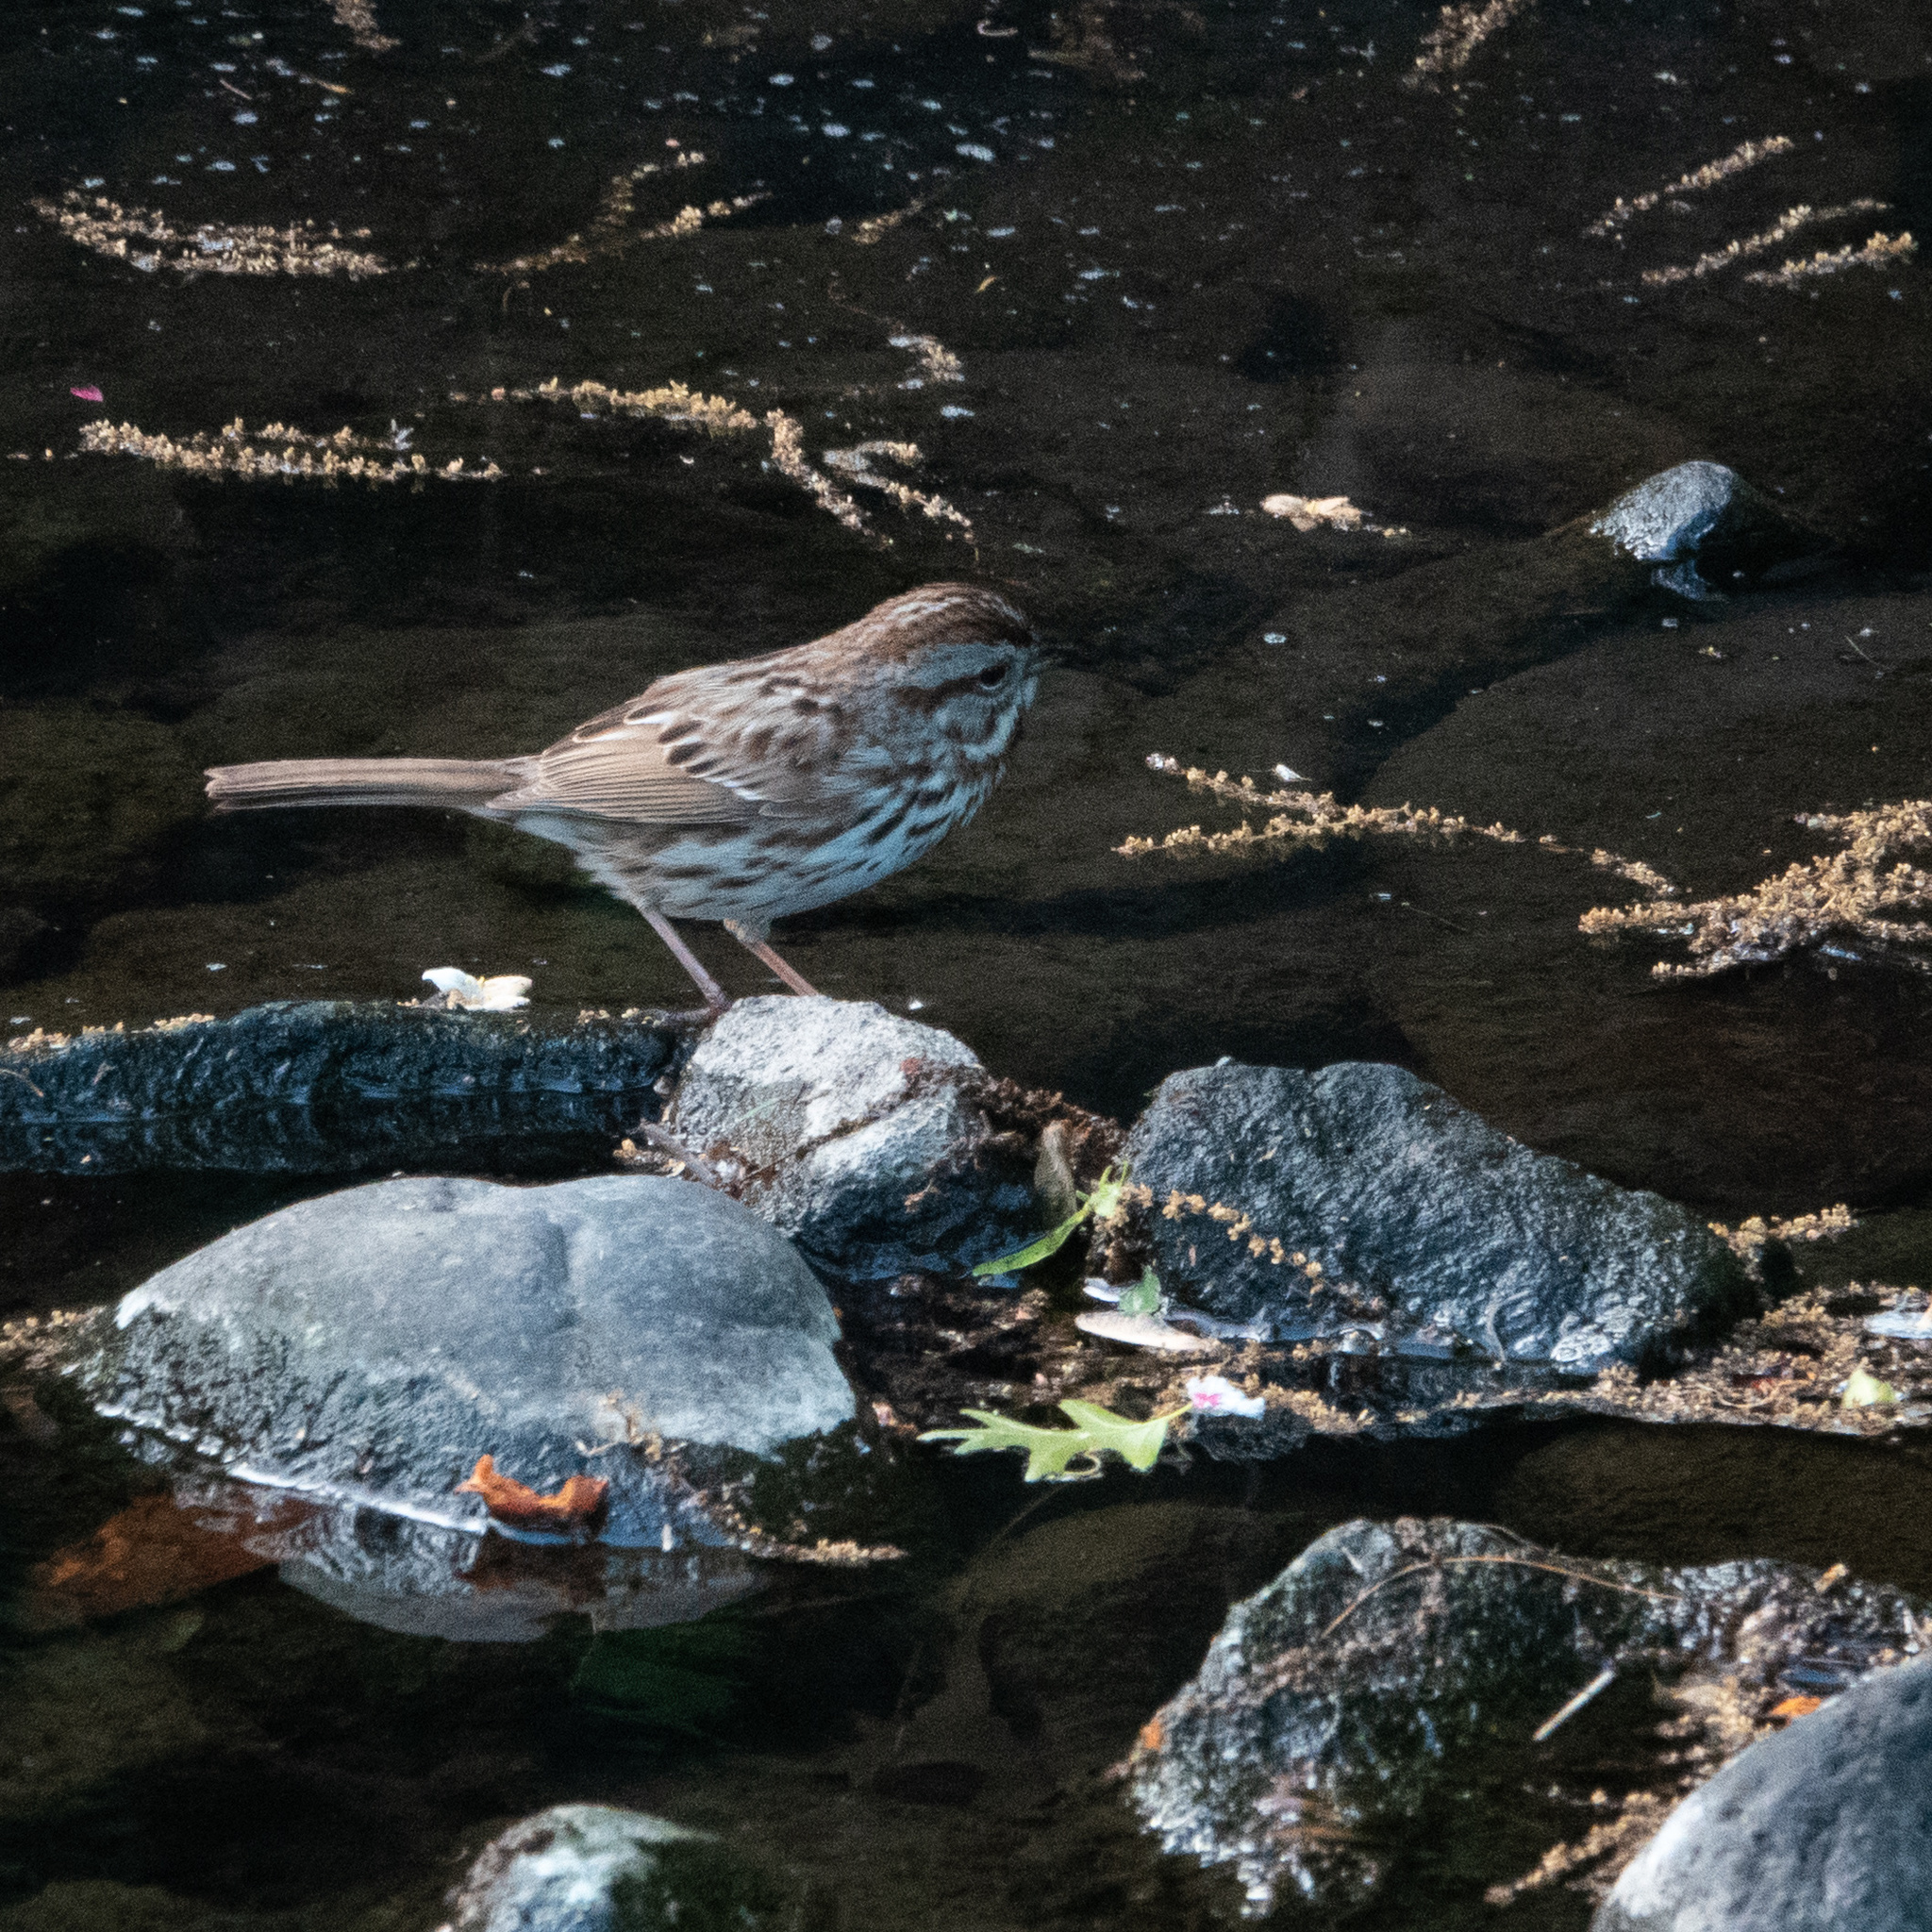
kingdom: Animalia
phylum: Chordata
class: Aves
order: Passeriformes
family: Passerellidae
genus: Melospiza
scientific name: Melospiza melodia
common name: Song sparrow
